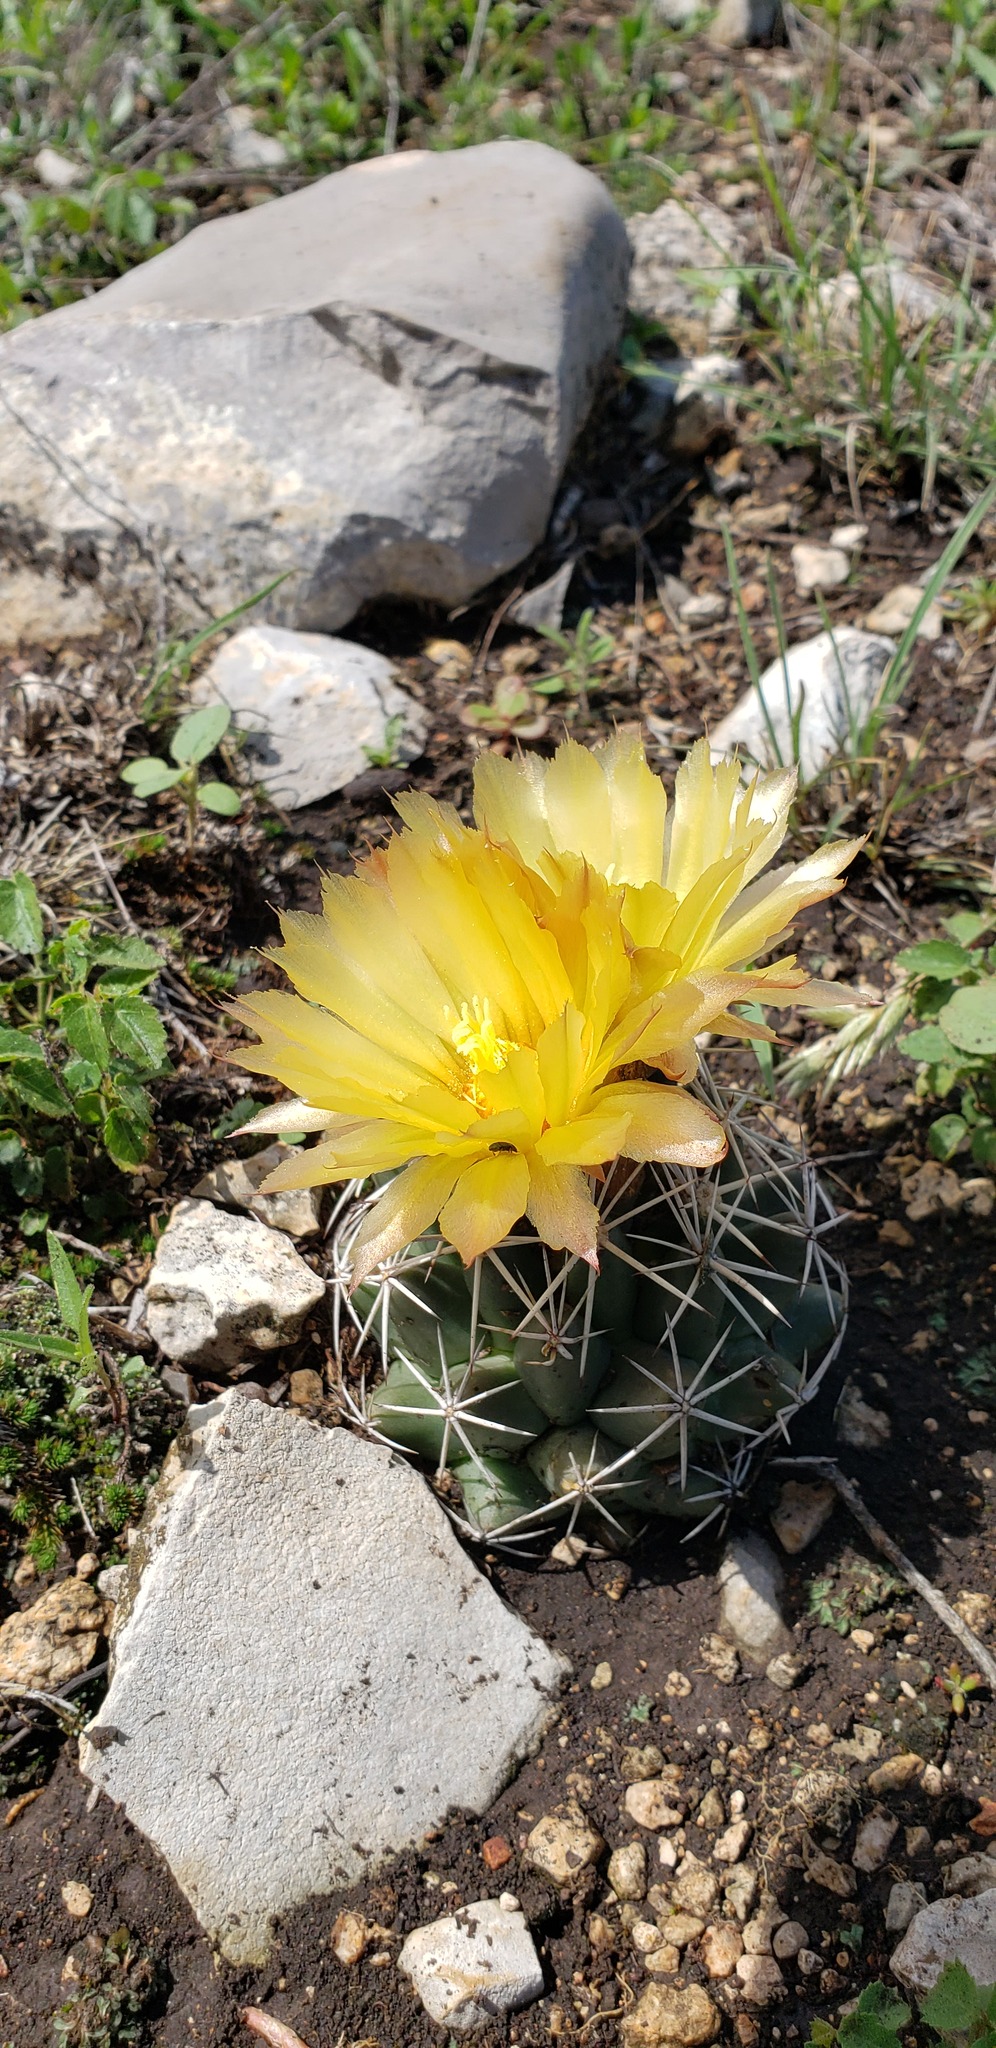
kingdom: Plantae
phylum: Tracheophyta
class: Magnoliopsida
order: Caryophyllales
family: Cactaceae
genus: Coryphantha
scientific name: Coryphantha sulcata
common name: Finger cactus
